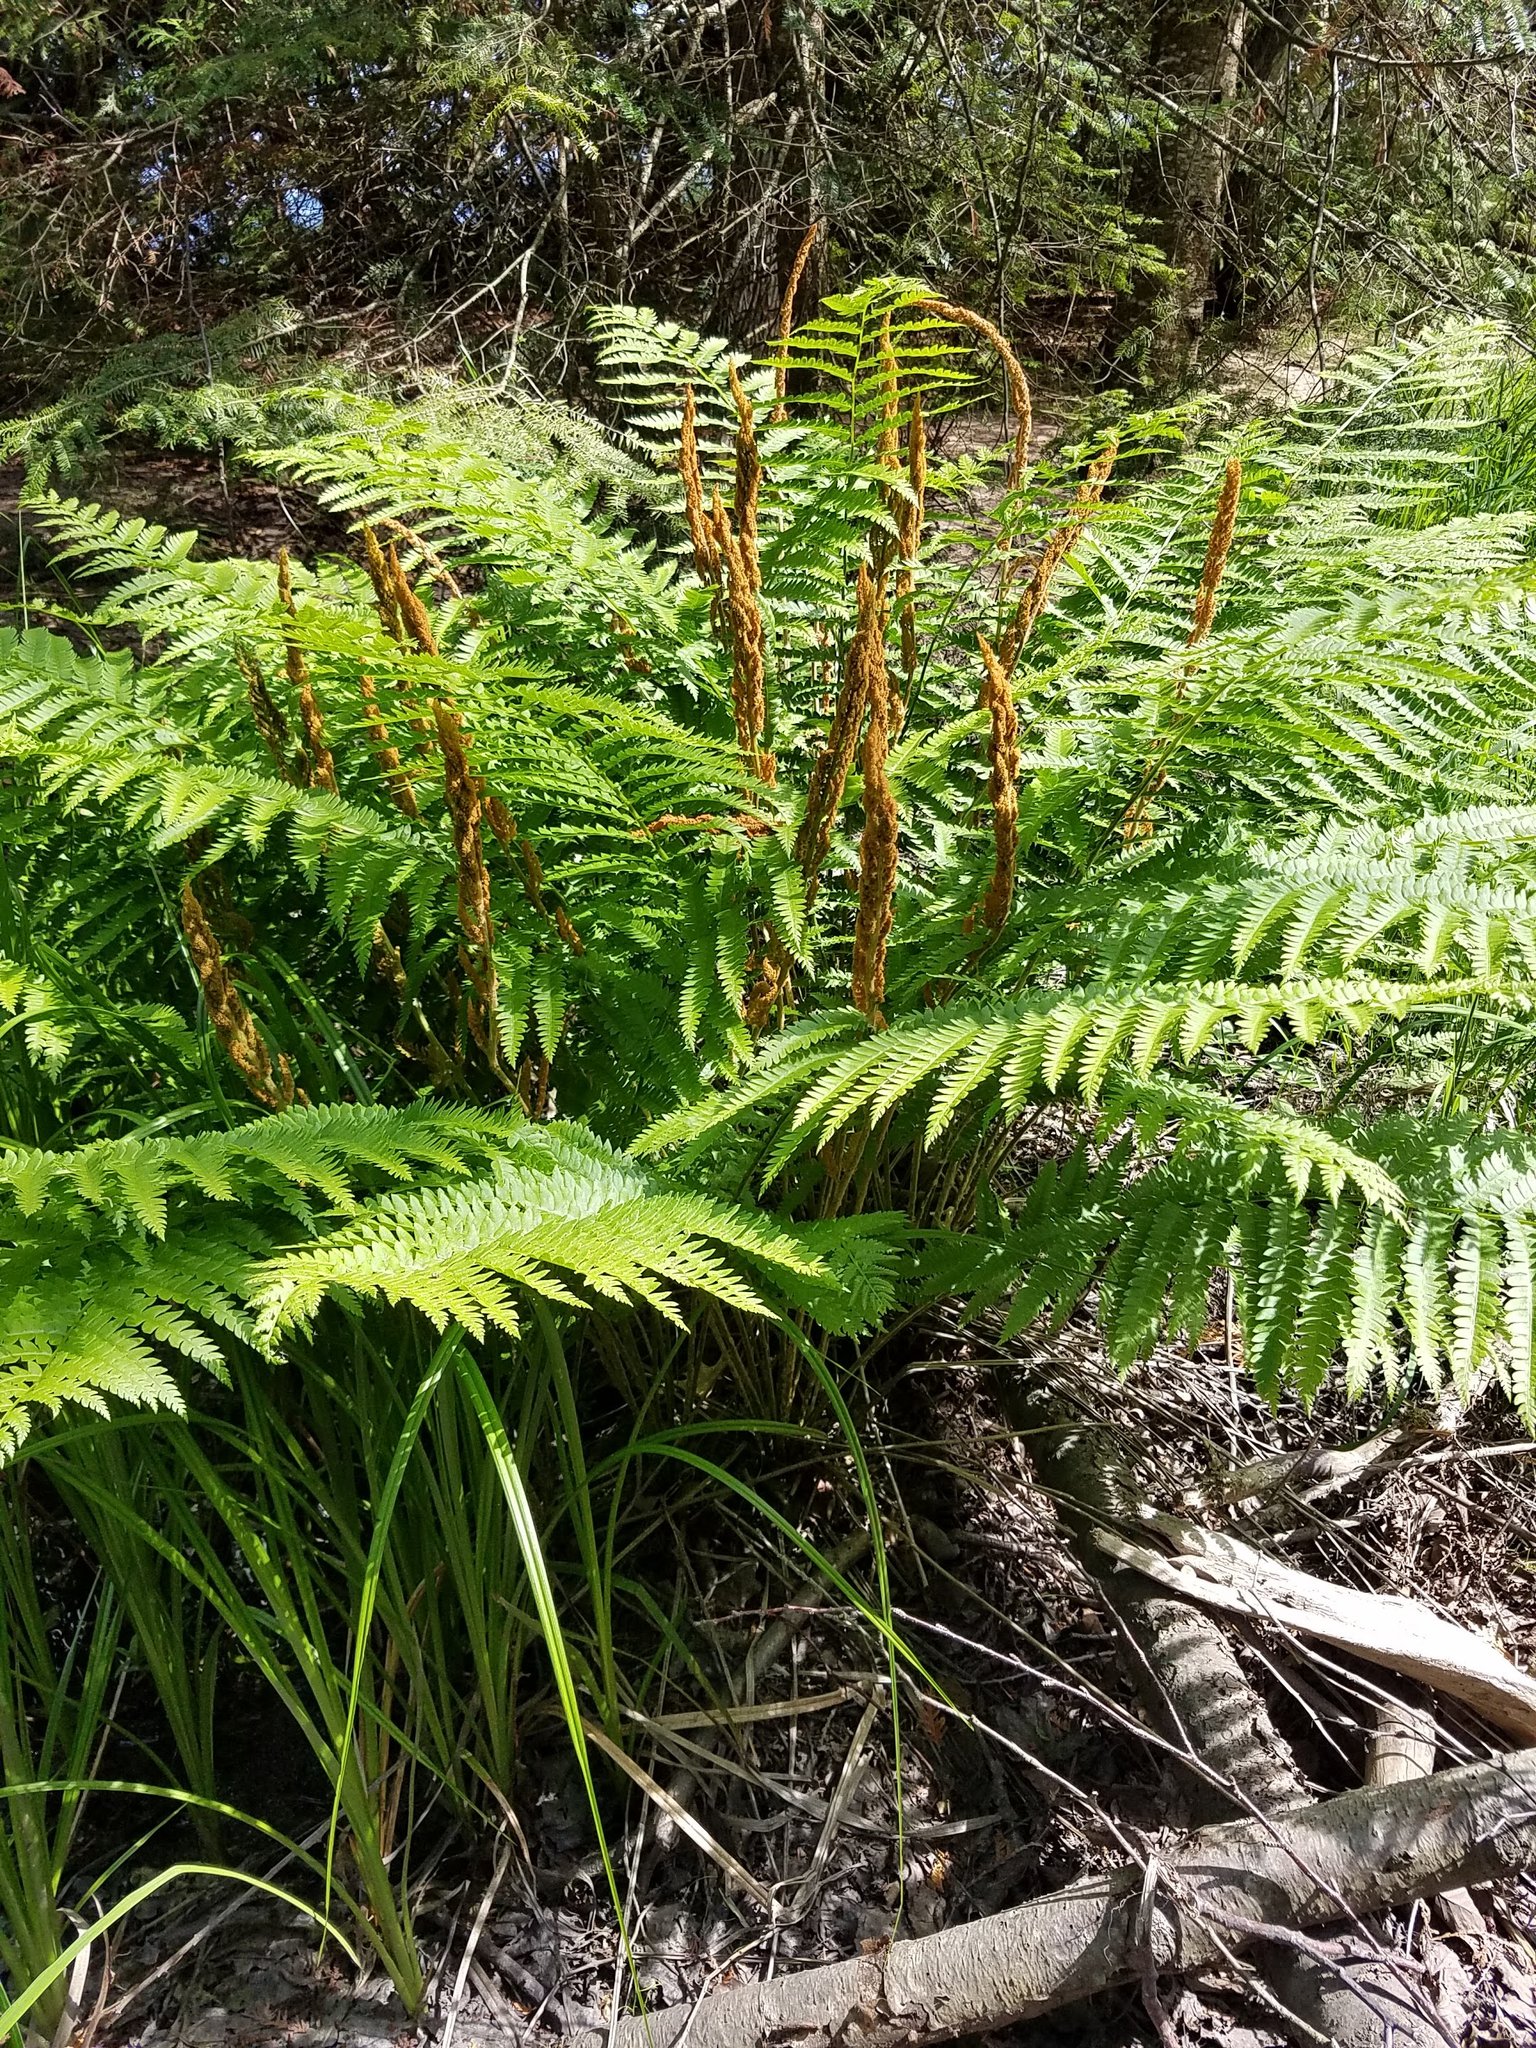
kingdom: Plantae
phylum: Tracheophyta
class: Polypodiopsida
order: Osmundales
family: Osmundaceae
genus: Osmundastrum
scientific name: Osmundastrum cinnamomeum
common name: Cinnamon fern
